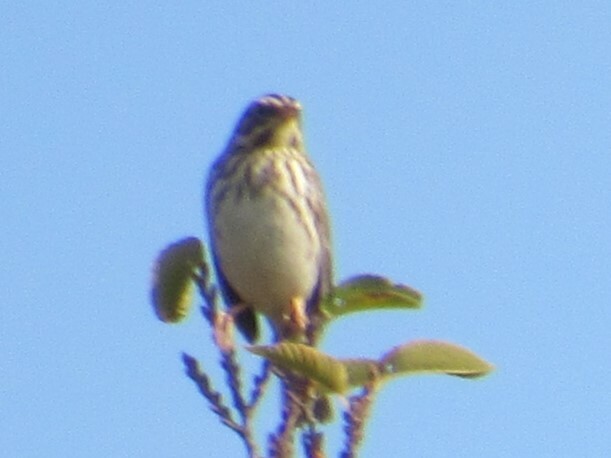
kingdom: Animalia
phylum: Chordata
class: Aves
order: Passeriformes
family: Passerellidae
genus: Passerculus
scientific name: Passerculus sandwichensis
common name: Savannah sparrow
